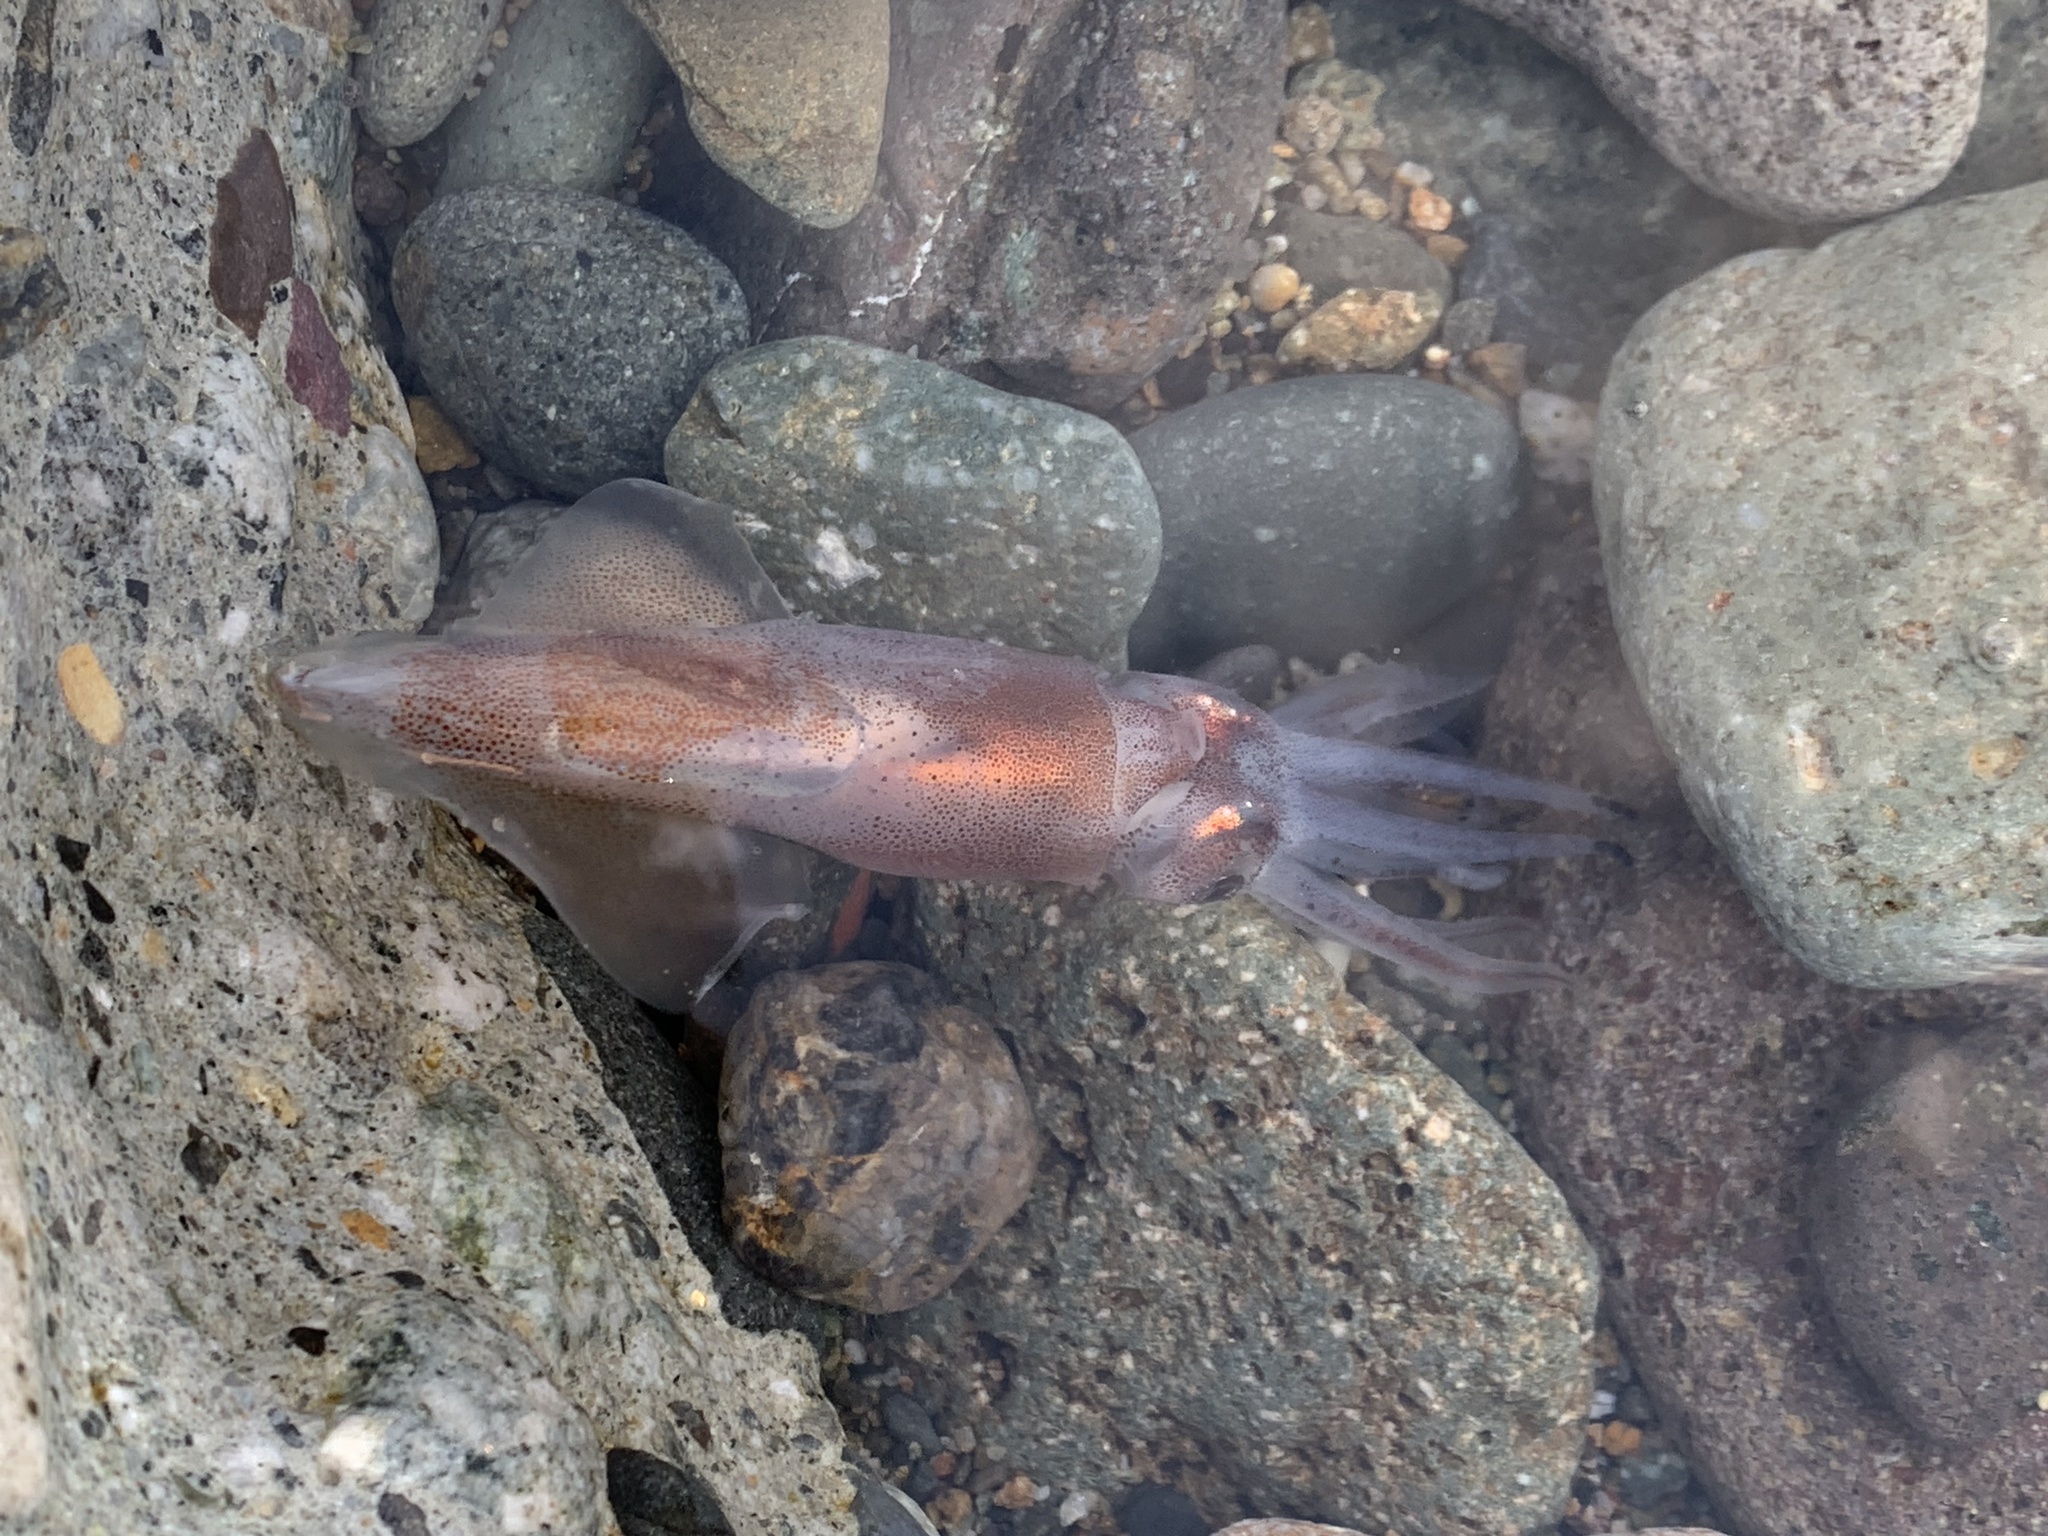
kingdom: Animalia
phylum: Mollusca
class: Cephalopoda
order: Oegopsida
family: Enoploteuthidae
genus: Watasenia
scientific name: Watasenia scintillans
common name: Japanese firefly squid
